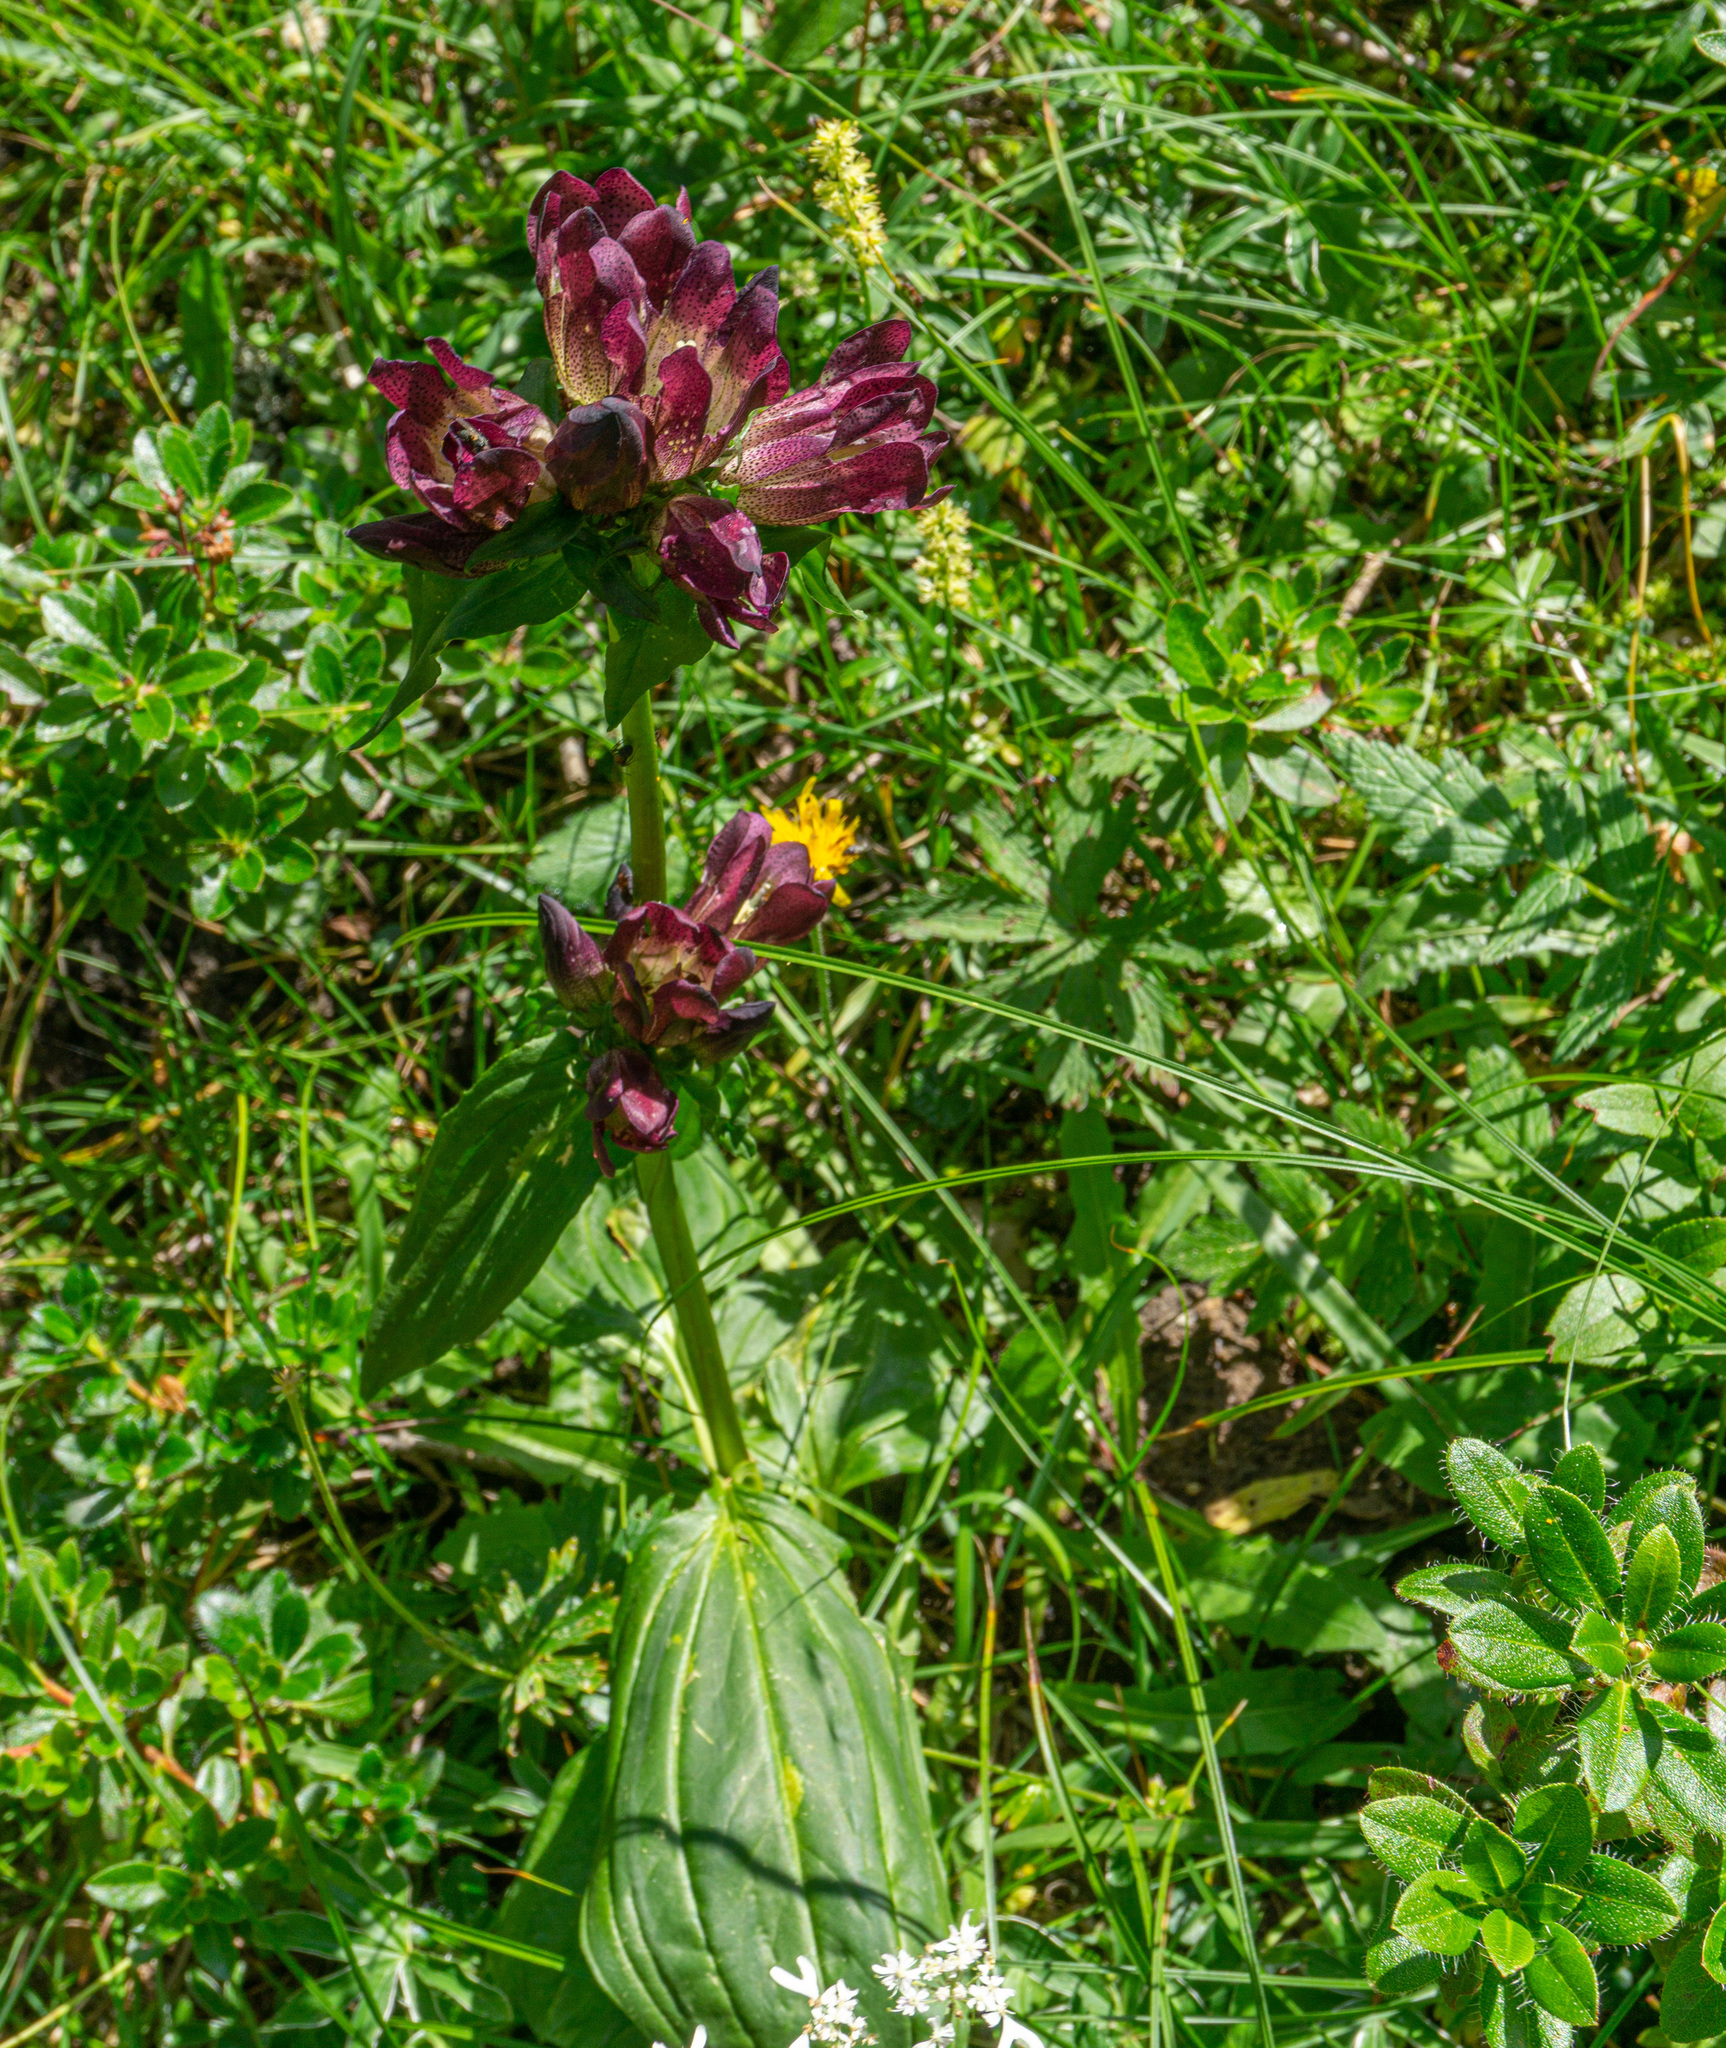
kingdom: Plantae
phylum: Tracheophyta
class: Magnoliopsida
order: Gentianales
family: Gentianaceae
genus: Gentiana
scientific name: Gentiana pannonica
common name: Hungarian gentian
